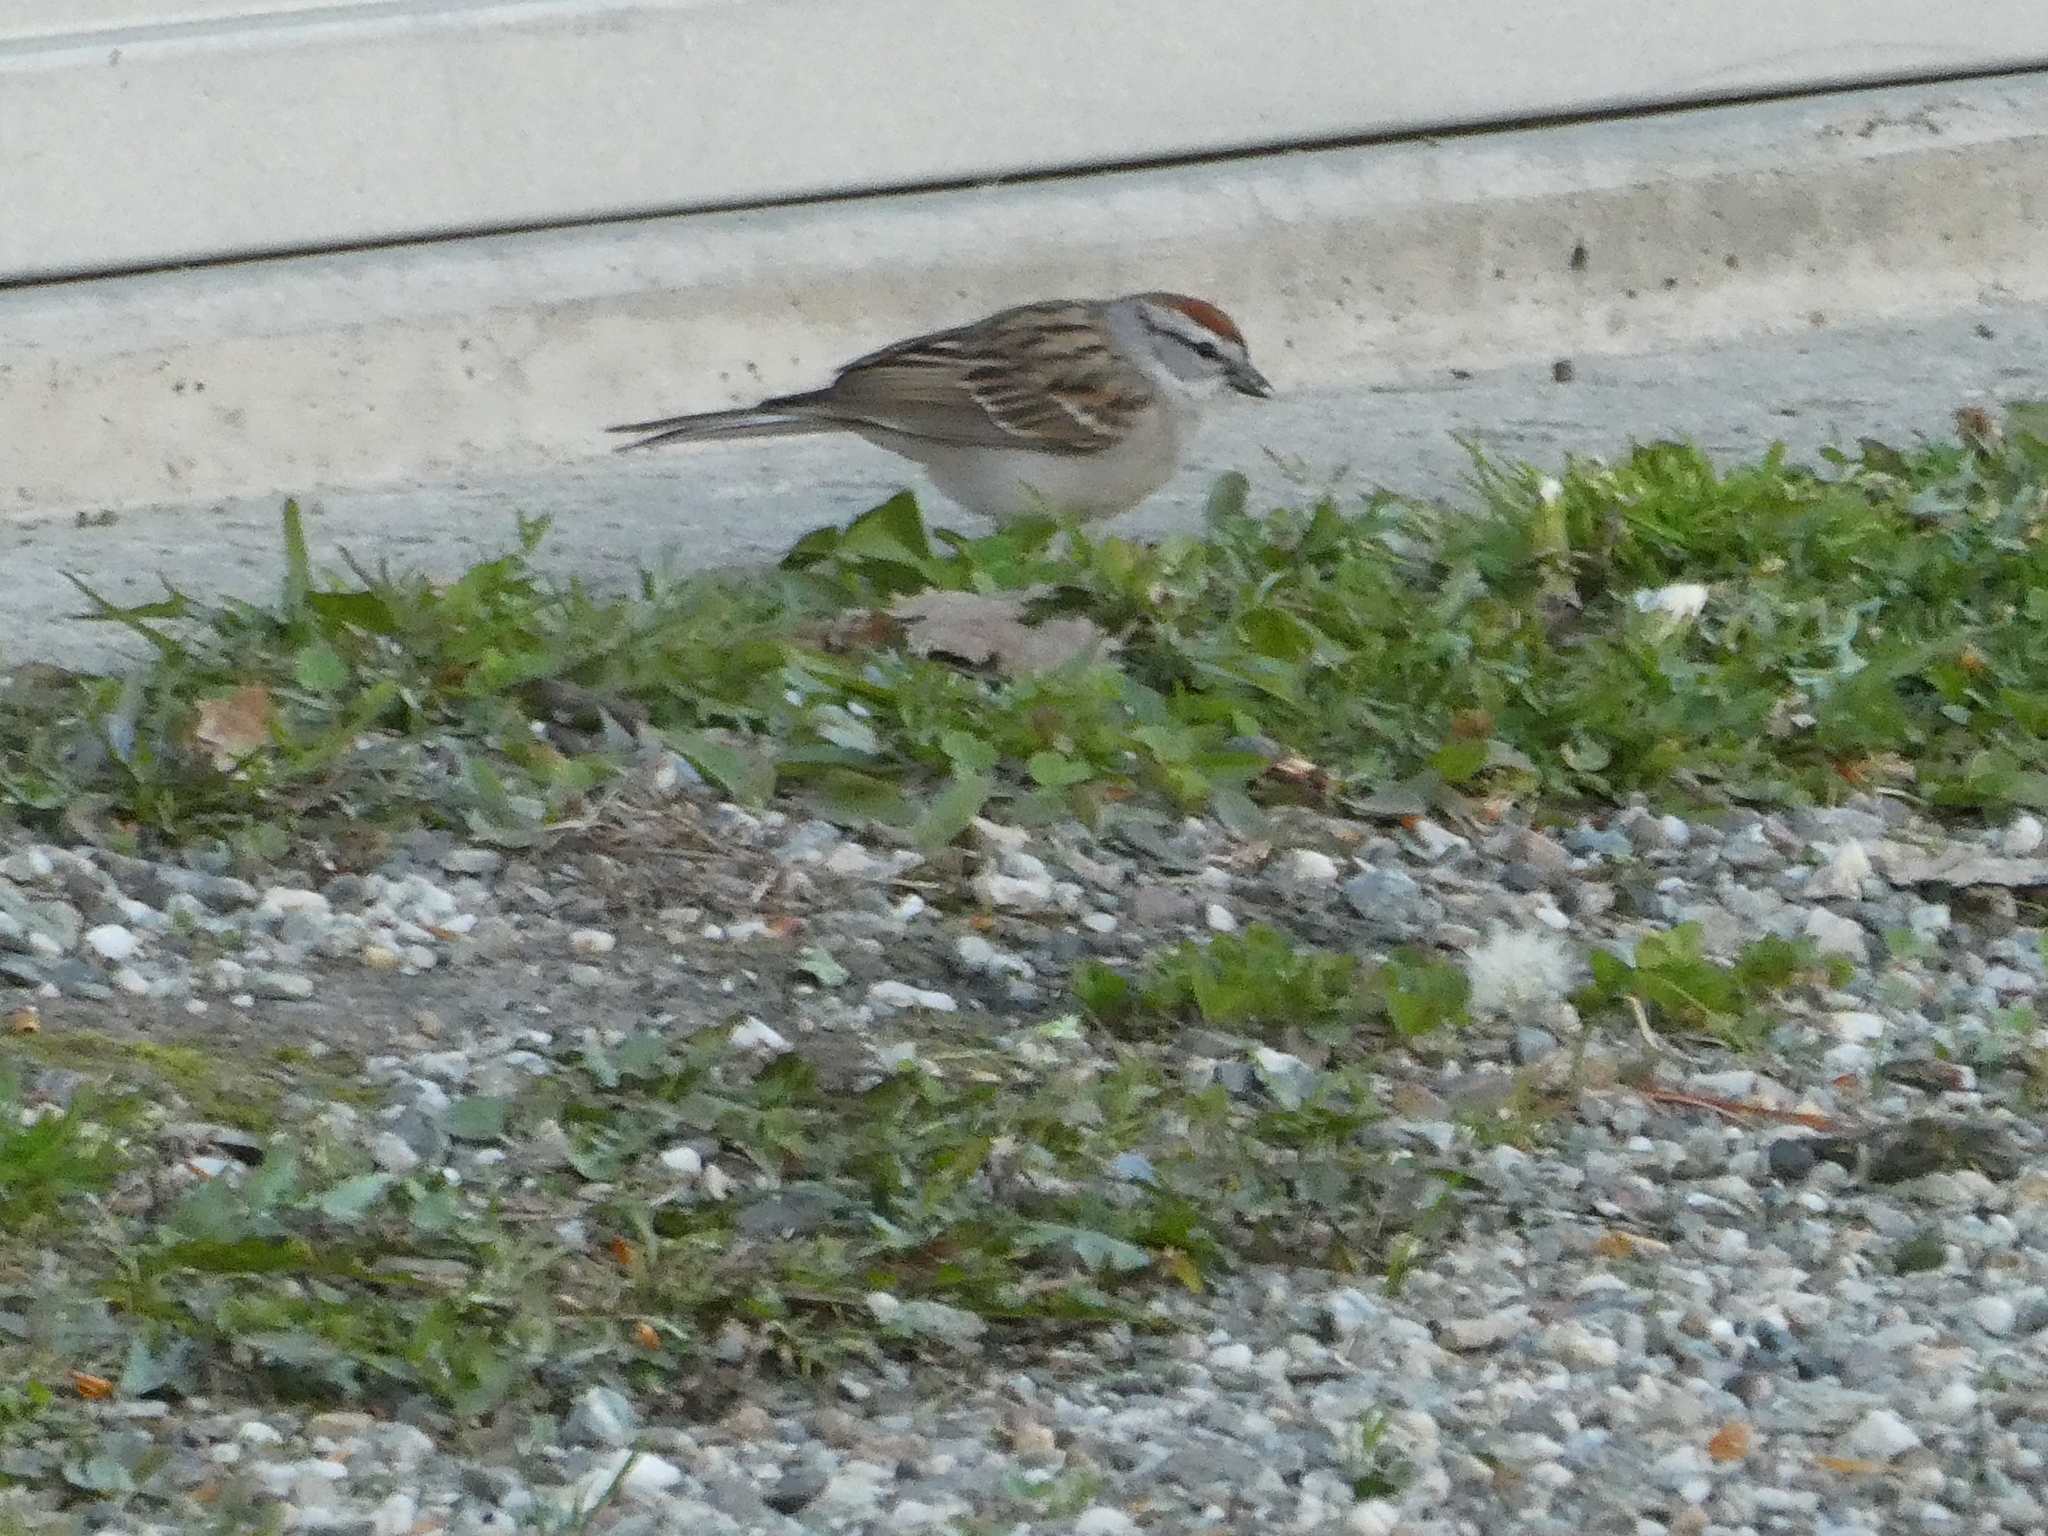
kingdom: Animalia
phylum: Chordata
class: Aves
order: Passeriformes
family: Passerellidae
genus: Spizella
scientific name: Spizella passerina
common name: Chipping sparrow
